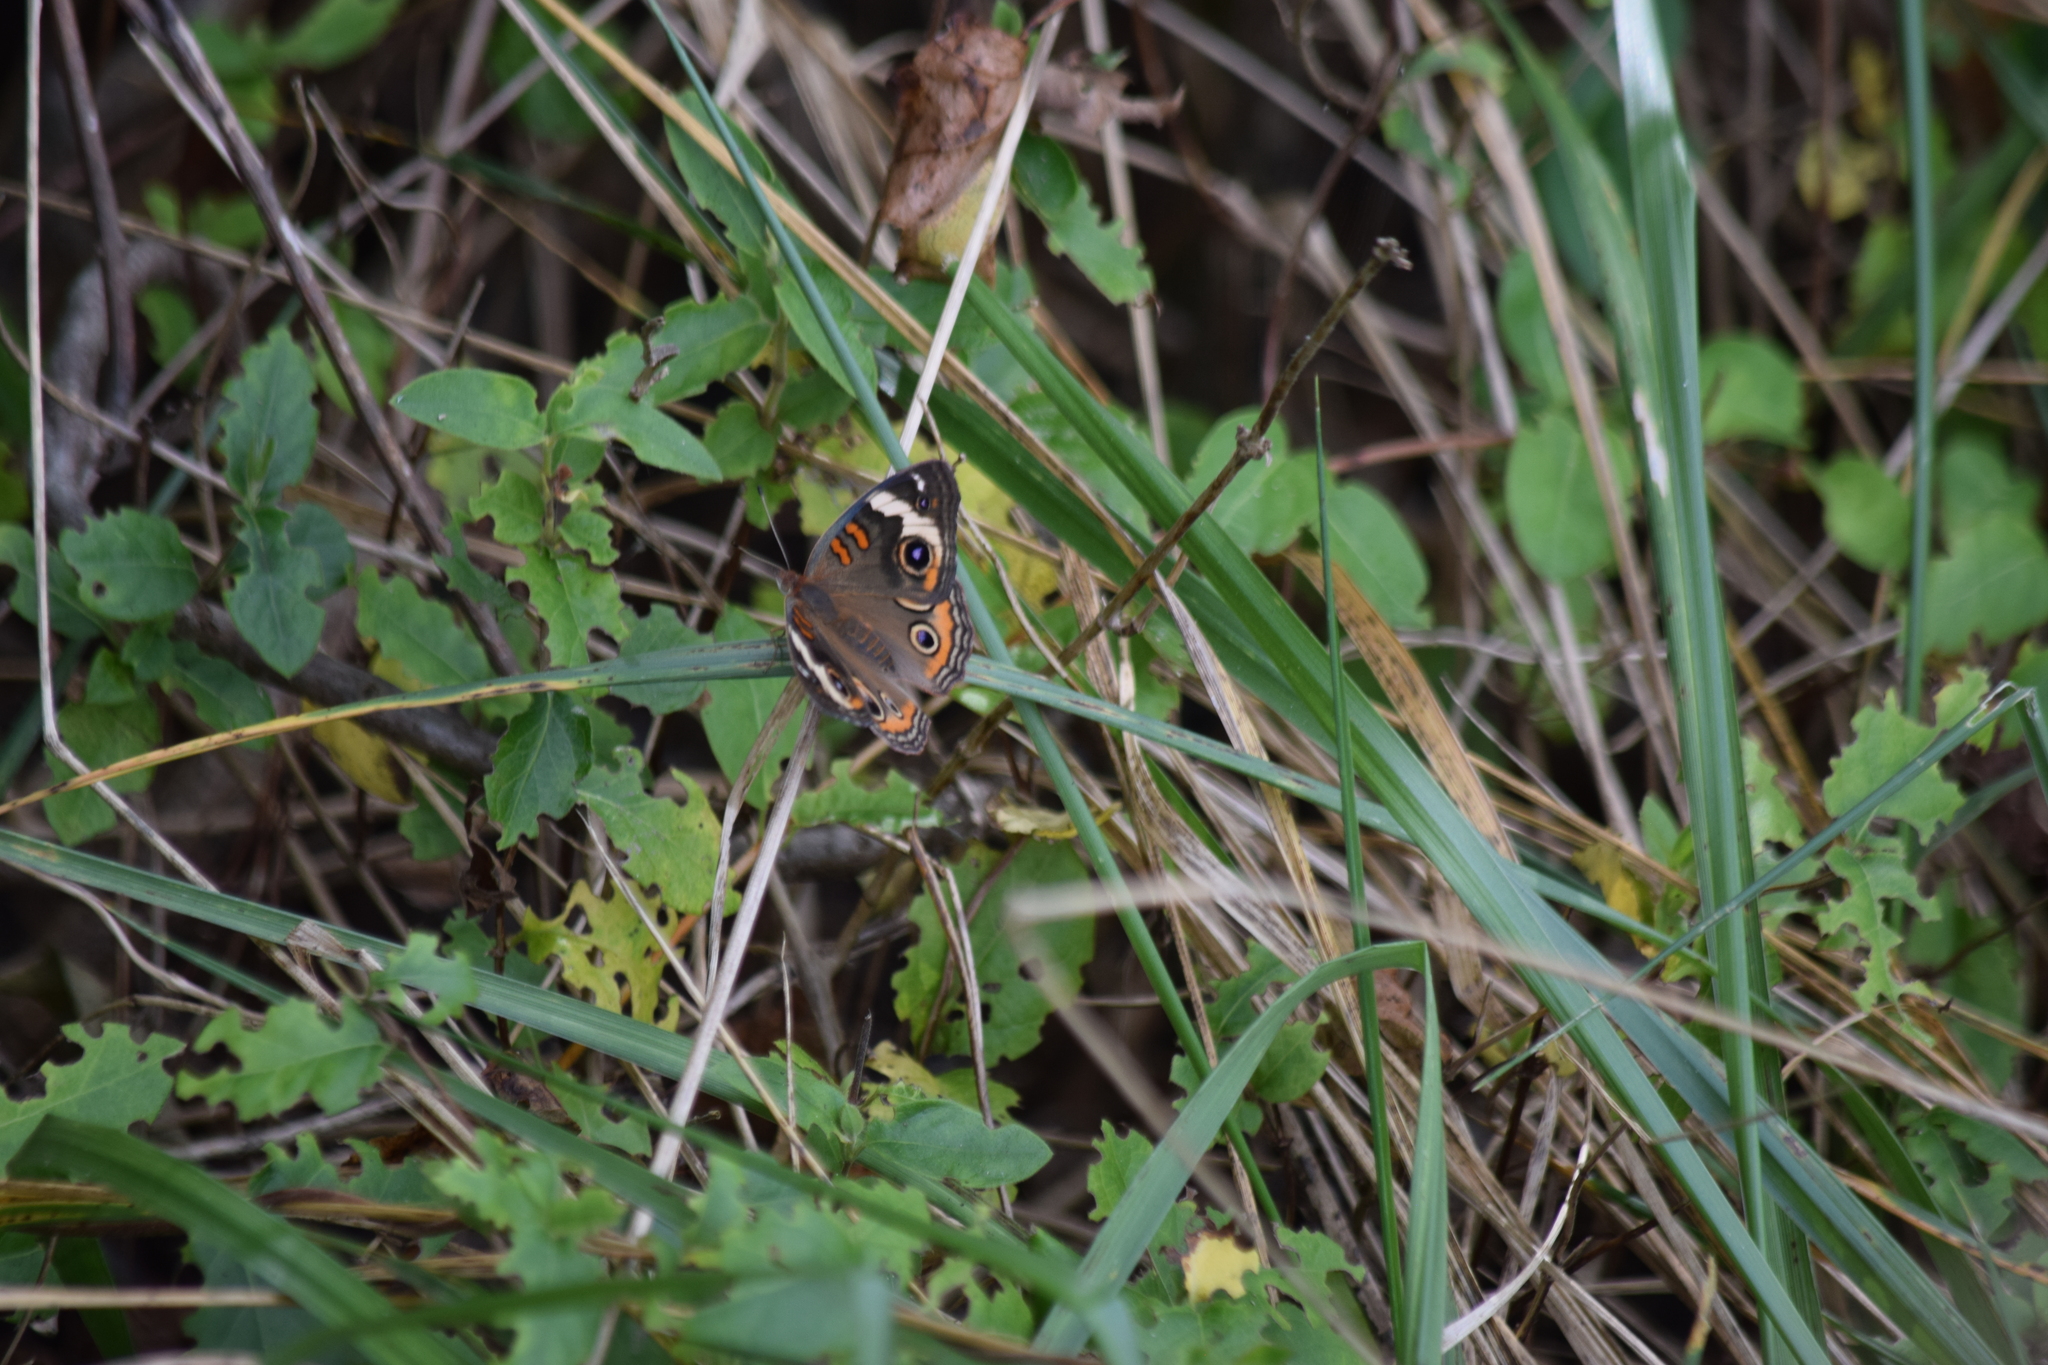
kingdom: Animalia
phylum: Arthropoda
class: Insecta
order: Lepidoptera
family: Nymphalidae
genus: Junonia
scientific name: Junonia coenia
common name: Common buckeye
